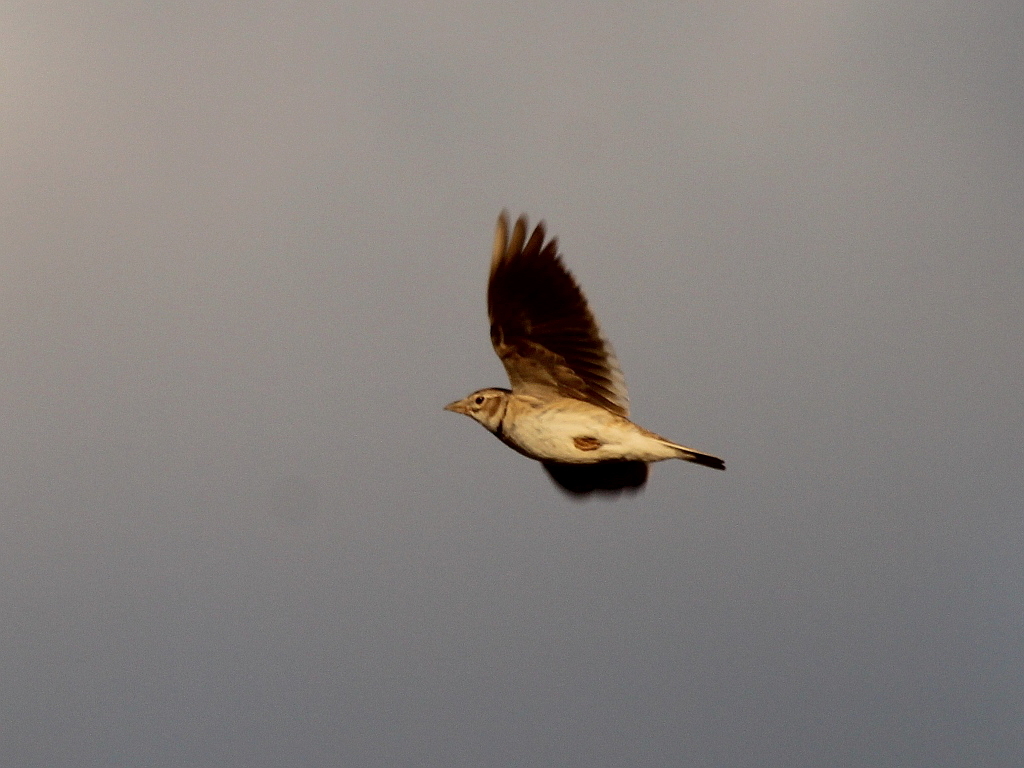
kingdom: Animalia
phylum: Chordata
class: Aves
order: Passeriformes
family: Alaudidae
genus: Melanocorypha
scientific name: Melanocorypha calandra
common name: Calandra lark
